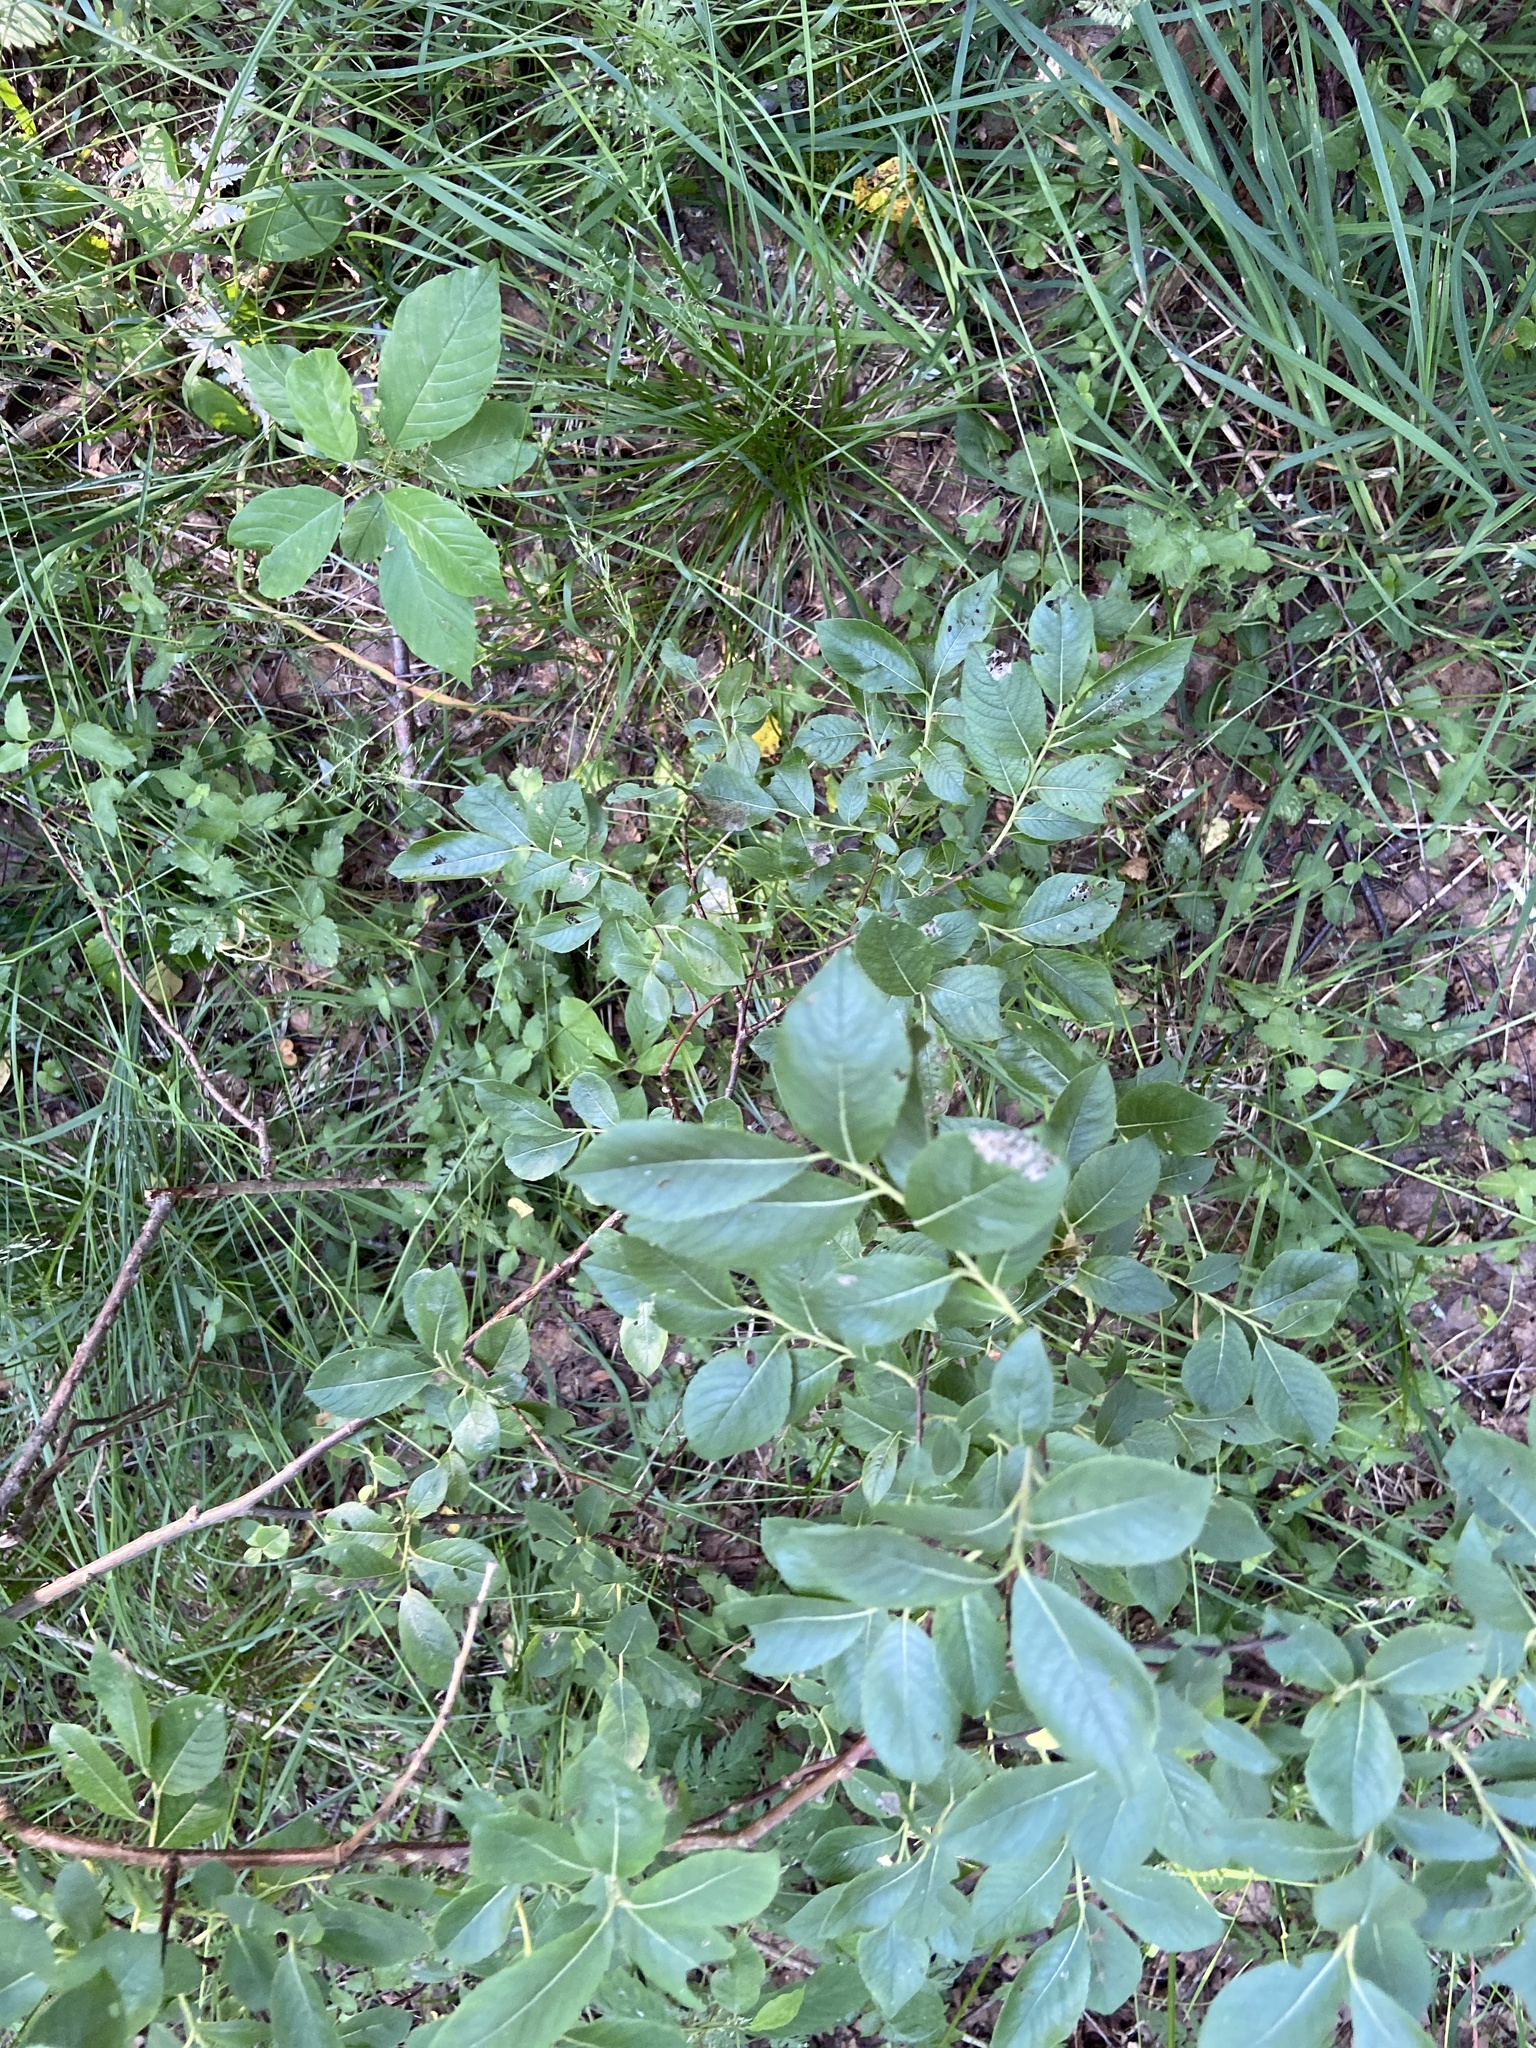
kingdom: Plantae
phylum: Tracheophyta
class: Magnoliopsida
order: Malpighiales
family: Salicaceae
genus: Salix
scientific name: Salix myrsinifolia
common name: Dark-leaved willow
